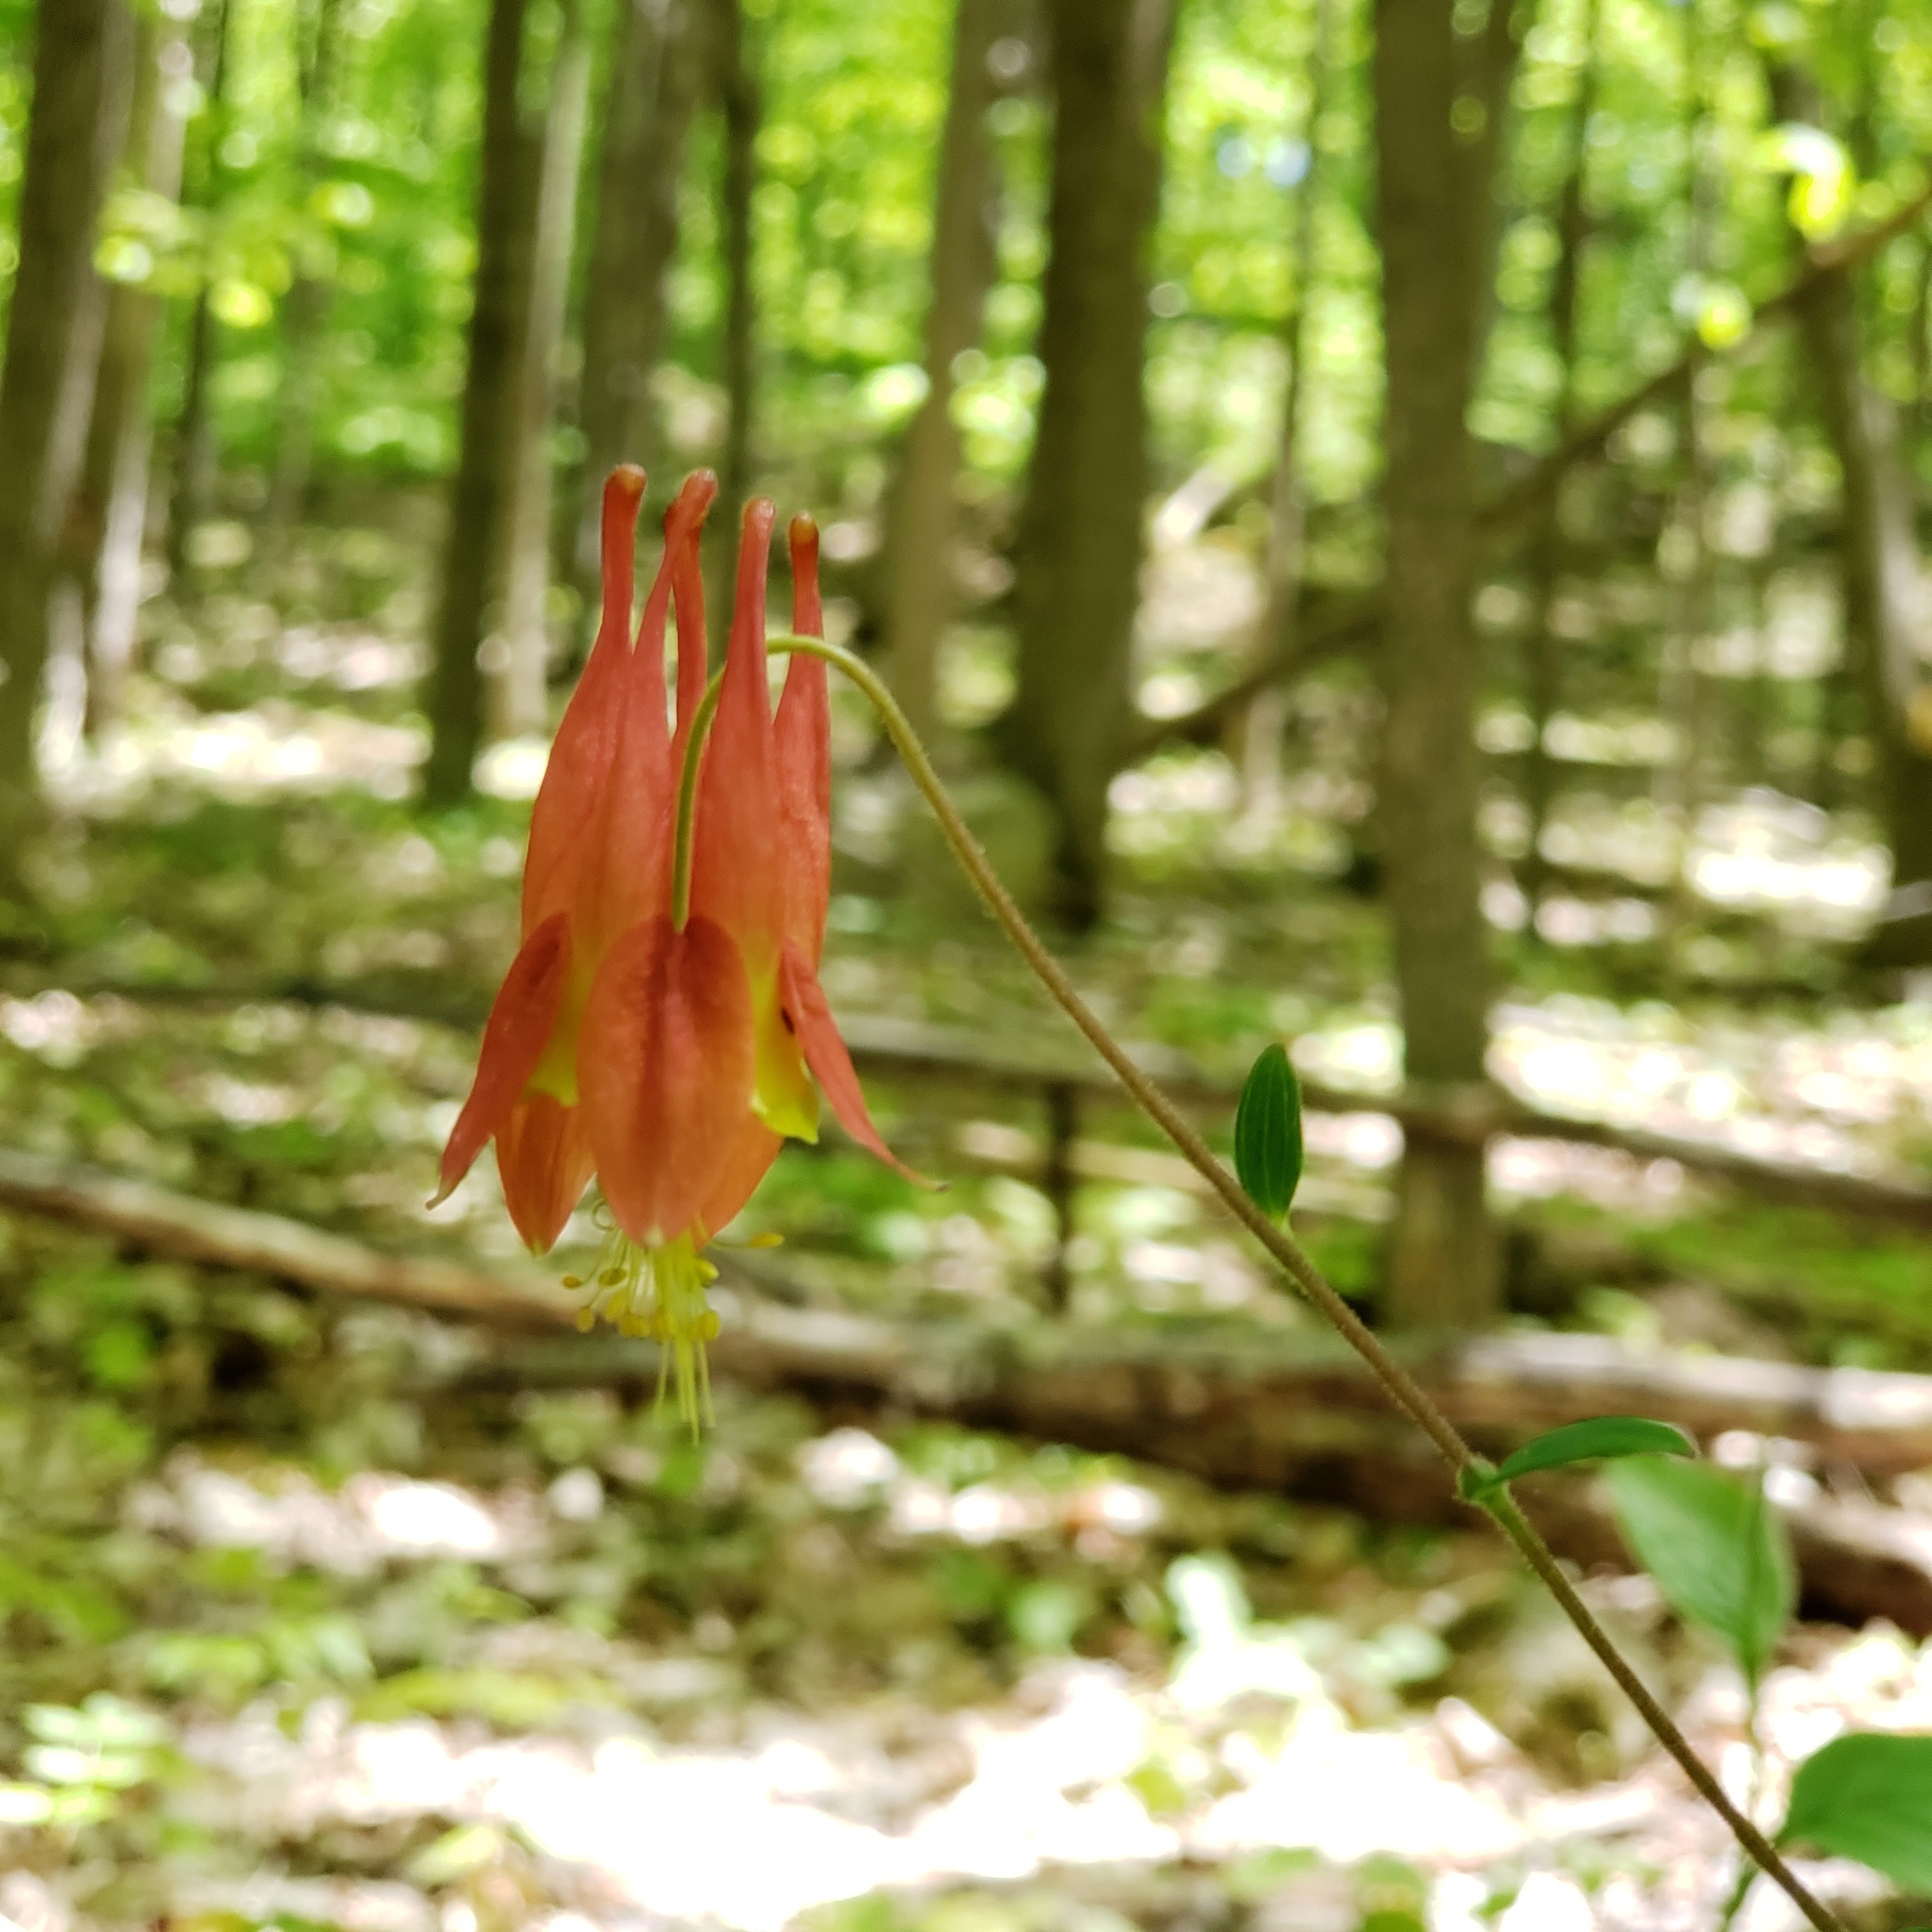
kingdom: Plantae
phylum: Tracheophyta
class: Magnoliopsida
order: Ranunculales
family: Ranunculaceae
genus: Aquilegia
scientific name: Aquilegia canadensis
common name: American columbine
